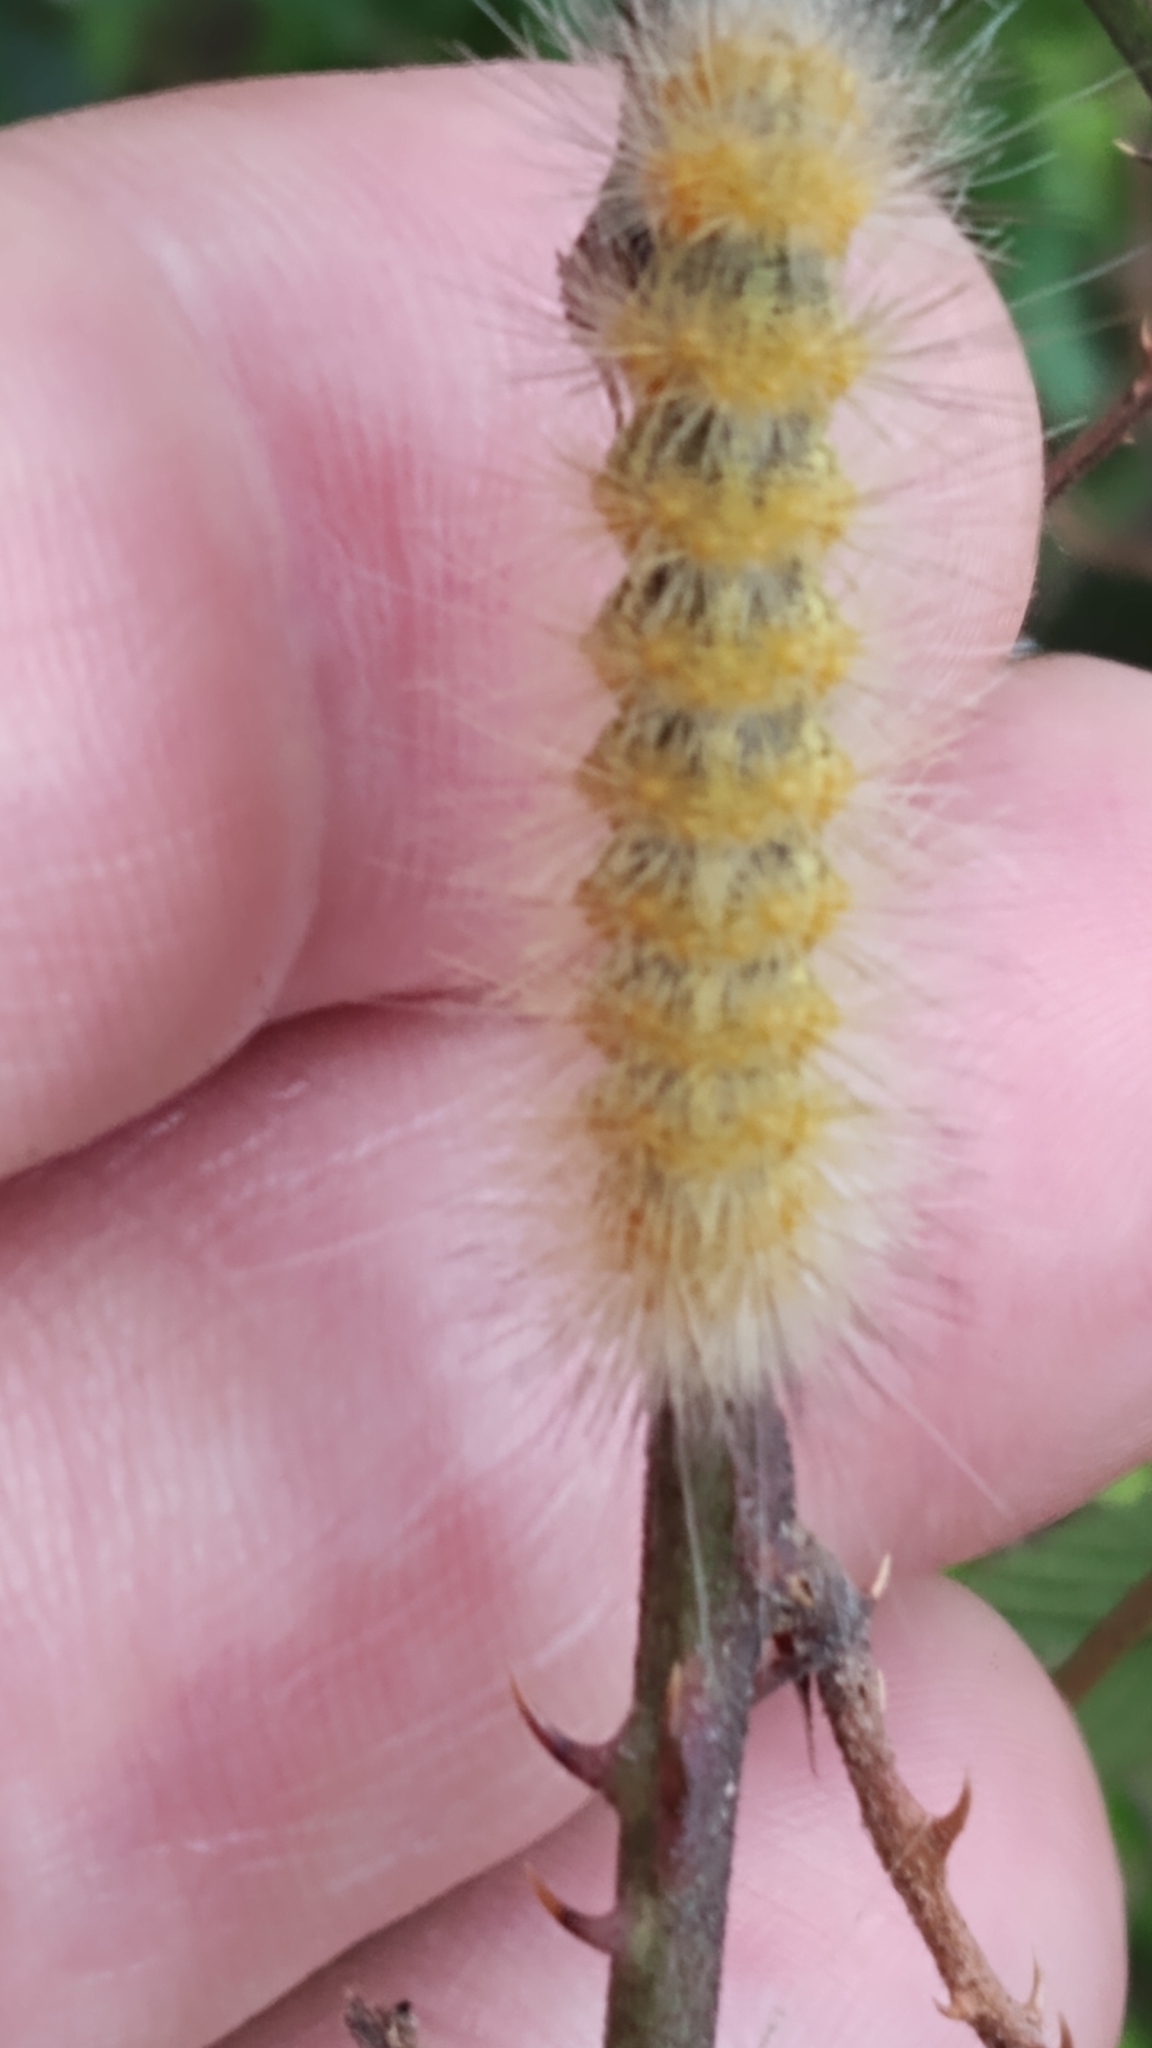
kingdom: Animalia
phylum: Arthropoda
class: Insecta
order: Lepidoptera
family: Erebidae
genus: Estigmene
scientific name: Estigmene acrea
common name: Salt marsh moth
